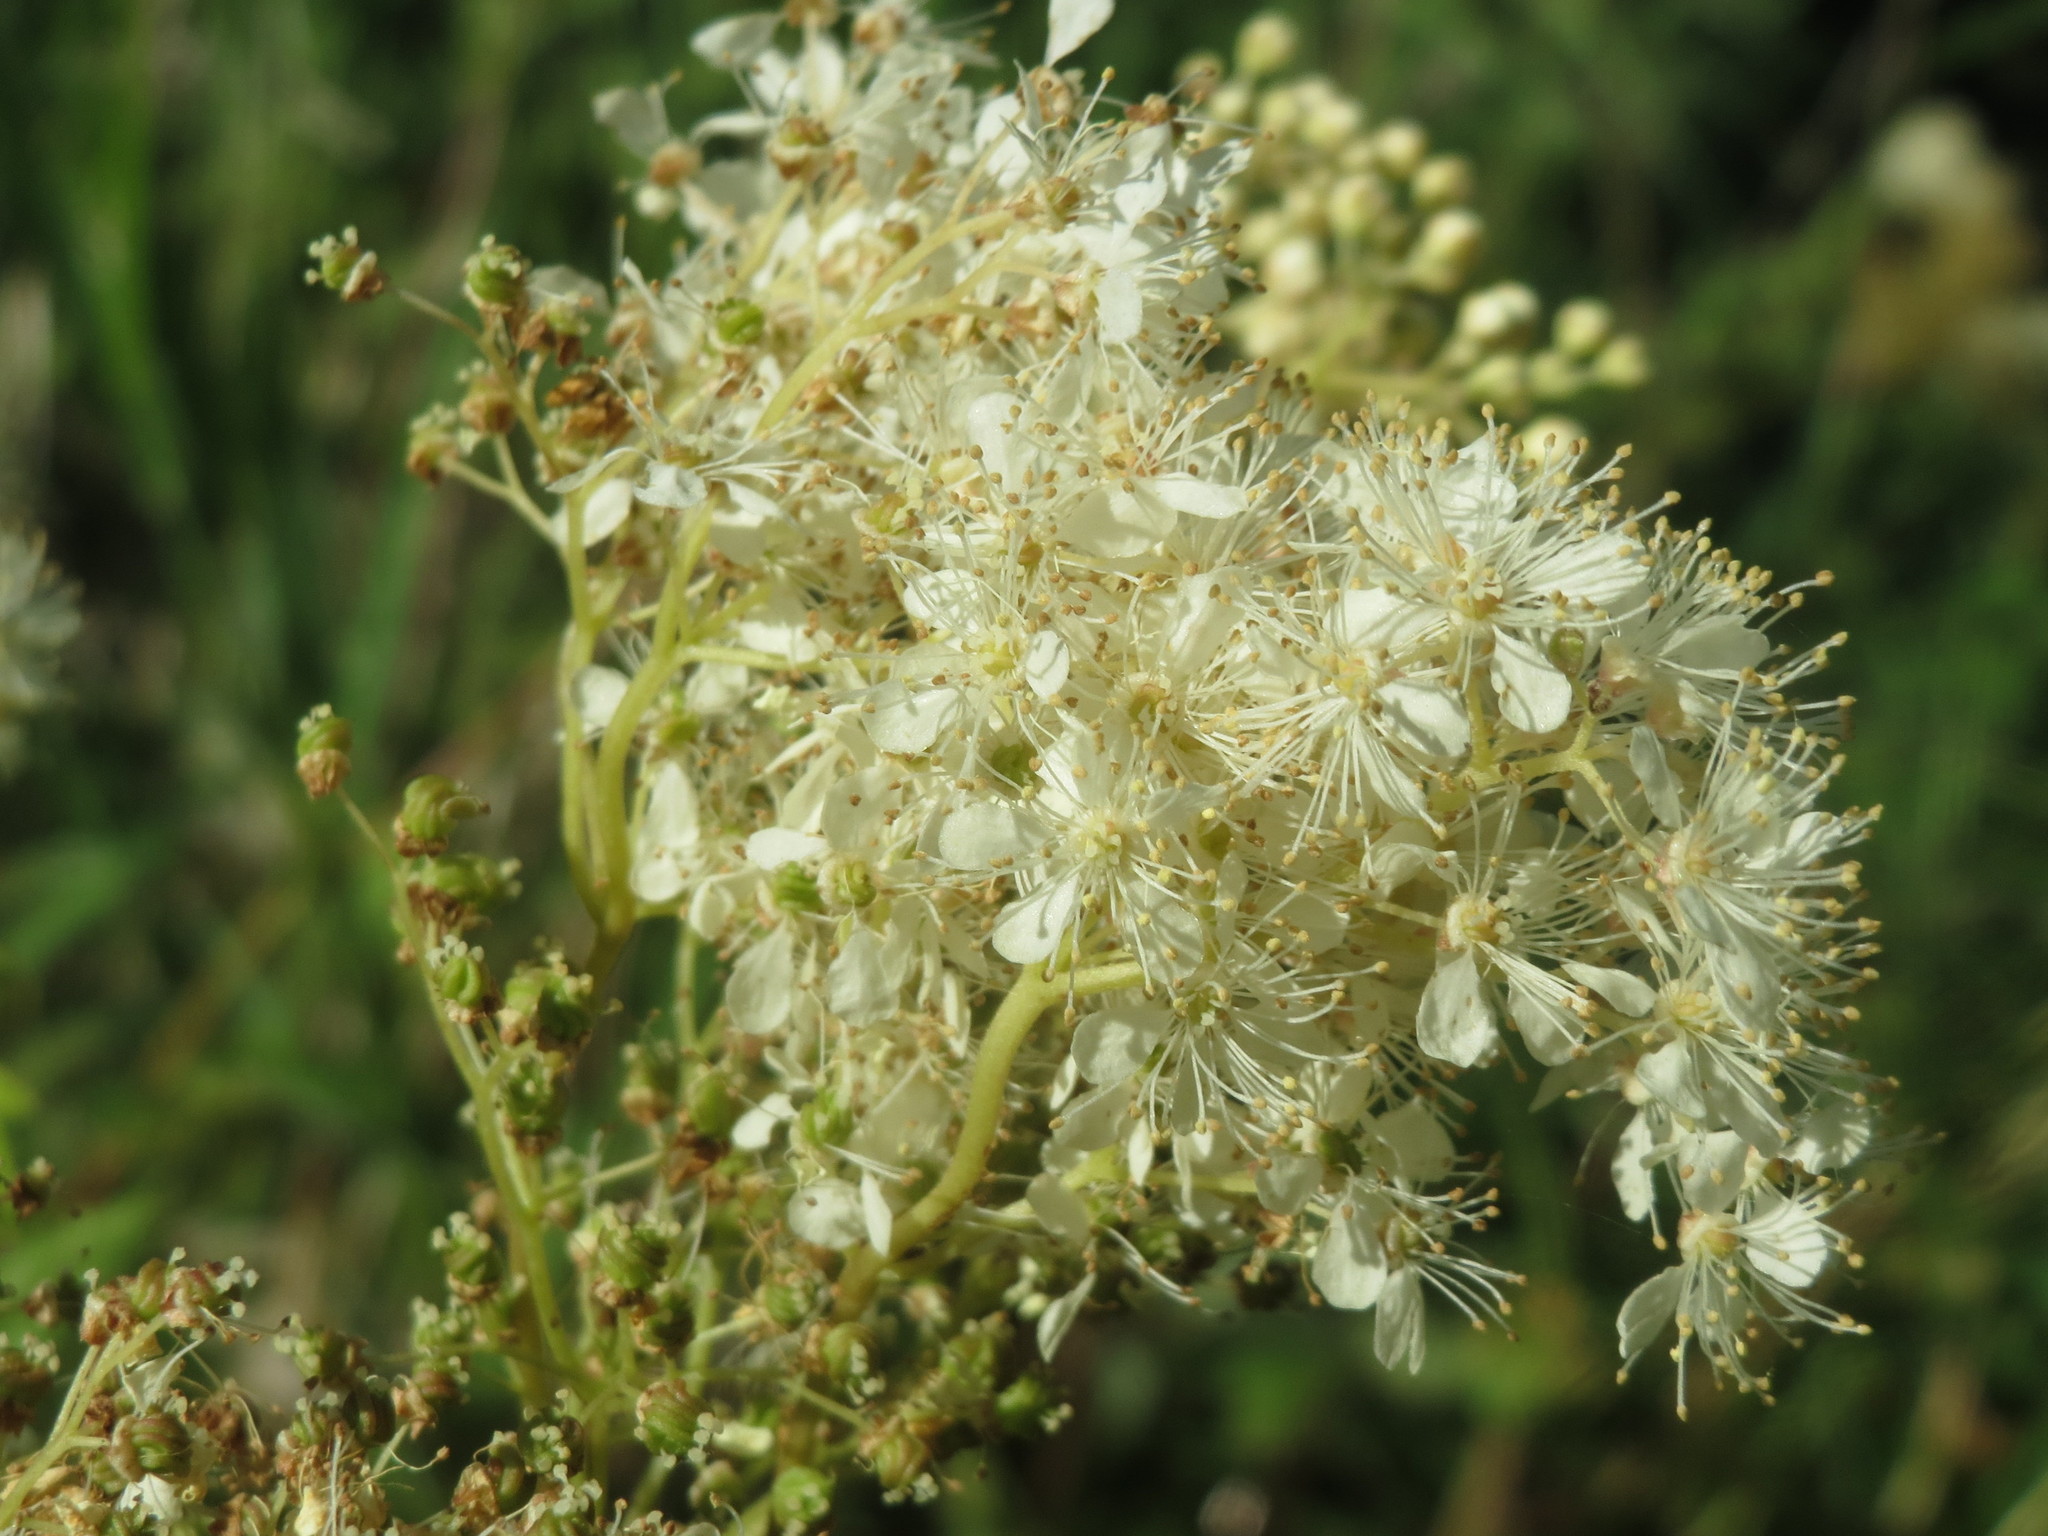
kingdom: Plantae
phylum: Tracheophyta
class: Magnoliopsida
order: Rosales
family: Rosaceae
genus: Filipendula
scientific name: Filipendula ulmaria
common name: Meadowsweet
